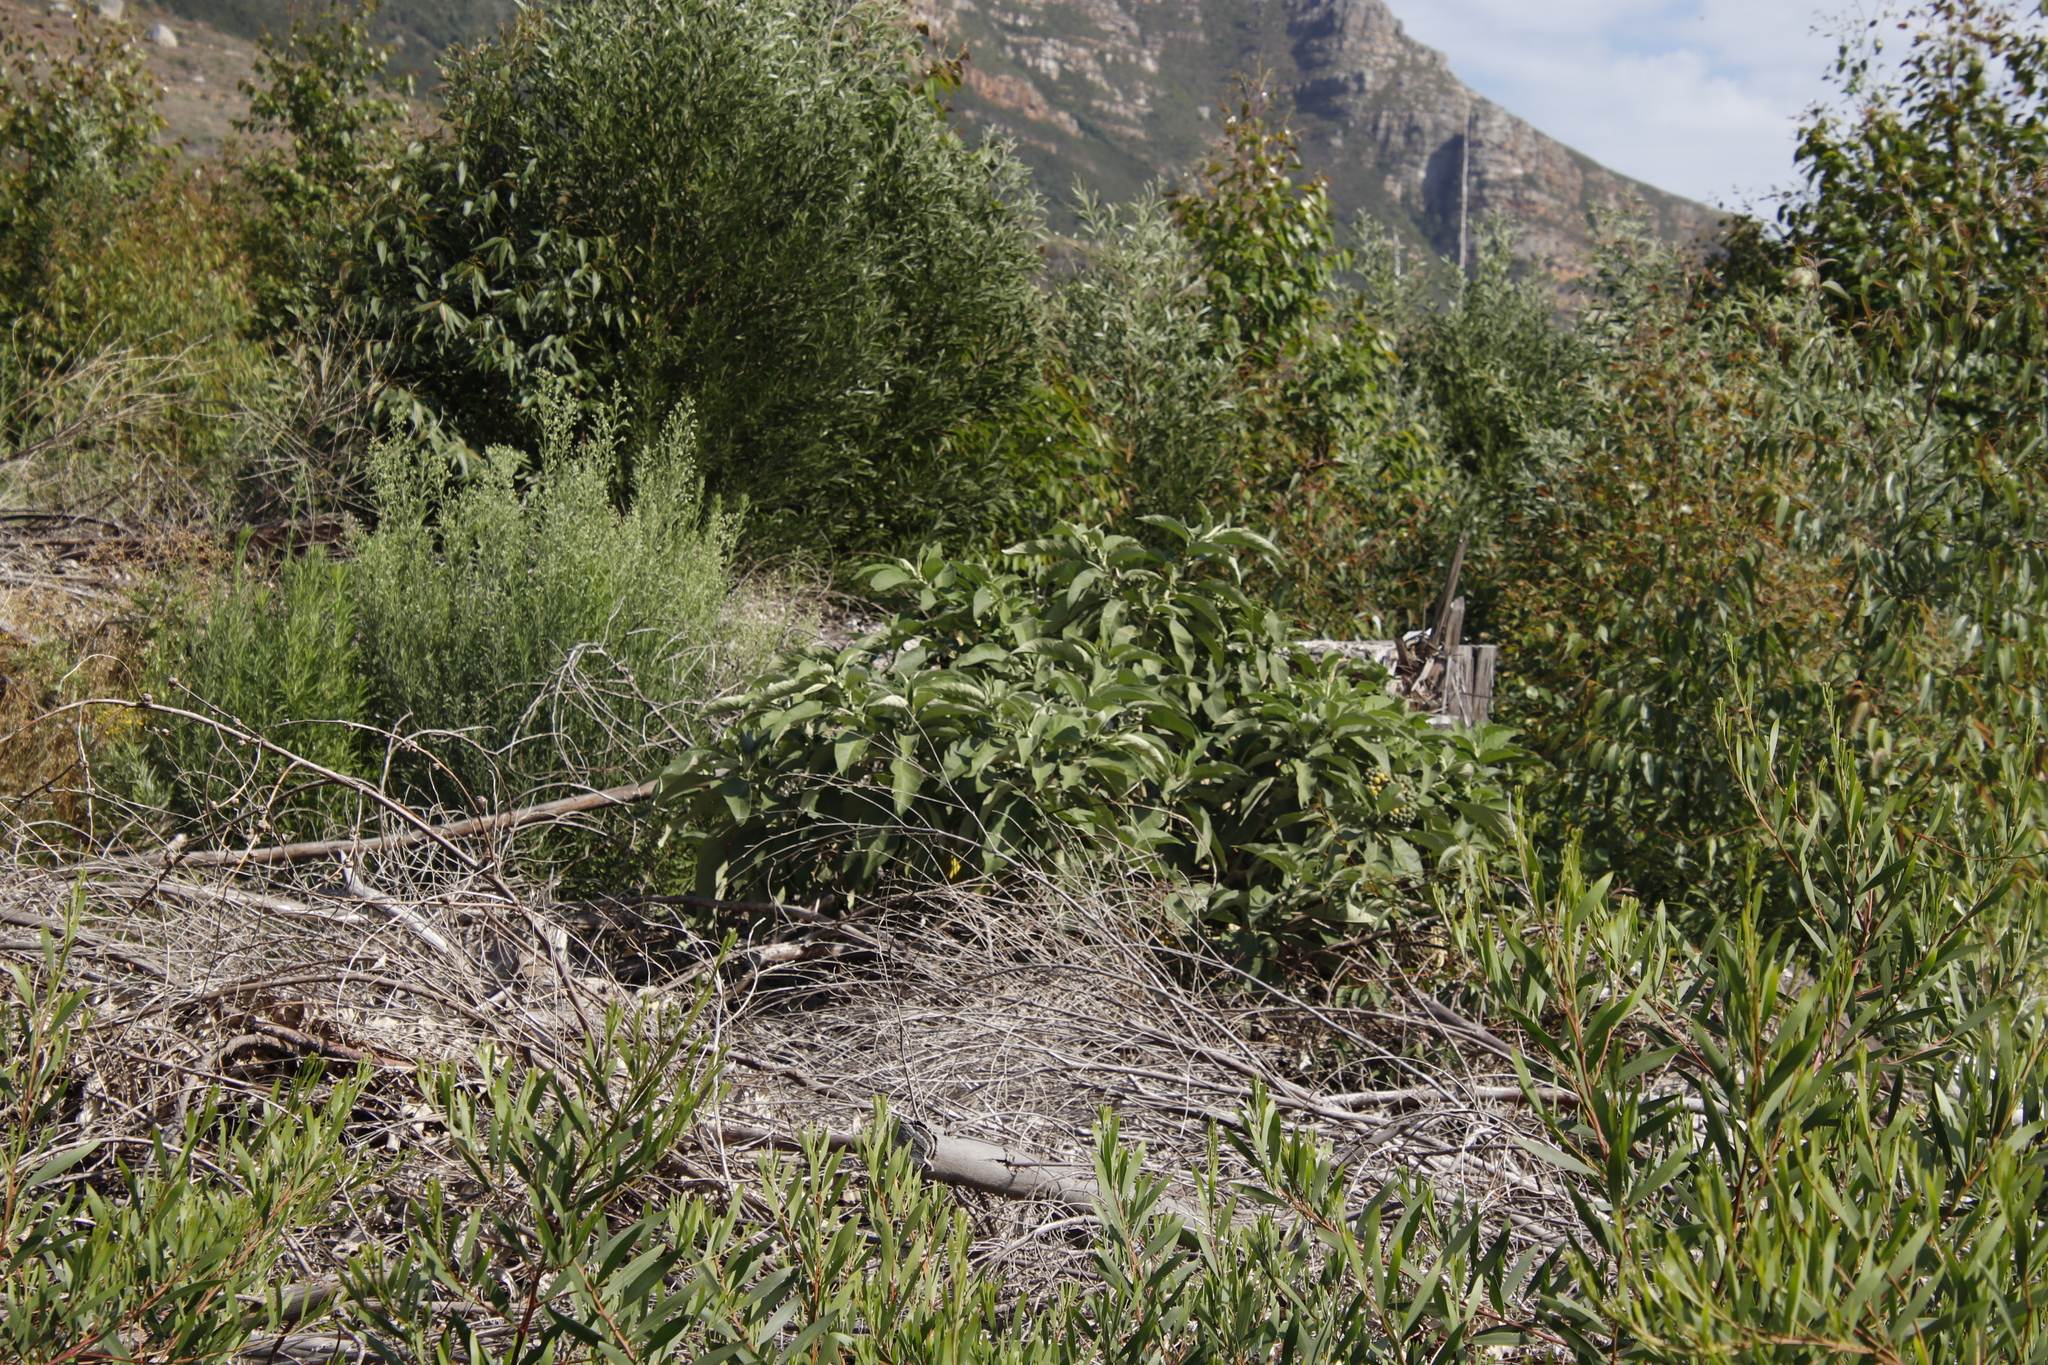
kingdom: Plantae
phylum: Tracheophyta
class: Magnoliopsida
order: Solanales
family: Solanaceae
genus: Solanum
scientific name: Solanum mauritianum
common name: Earleaf nightshade
